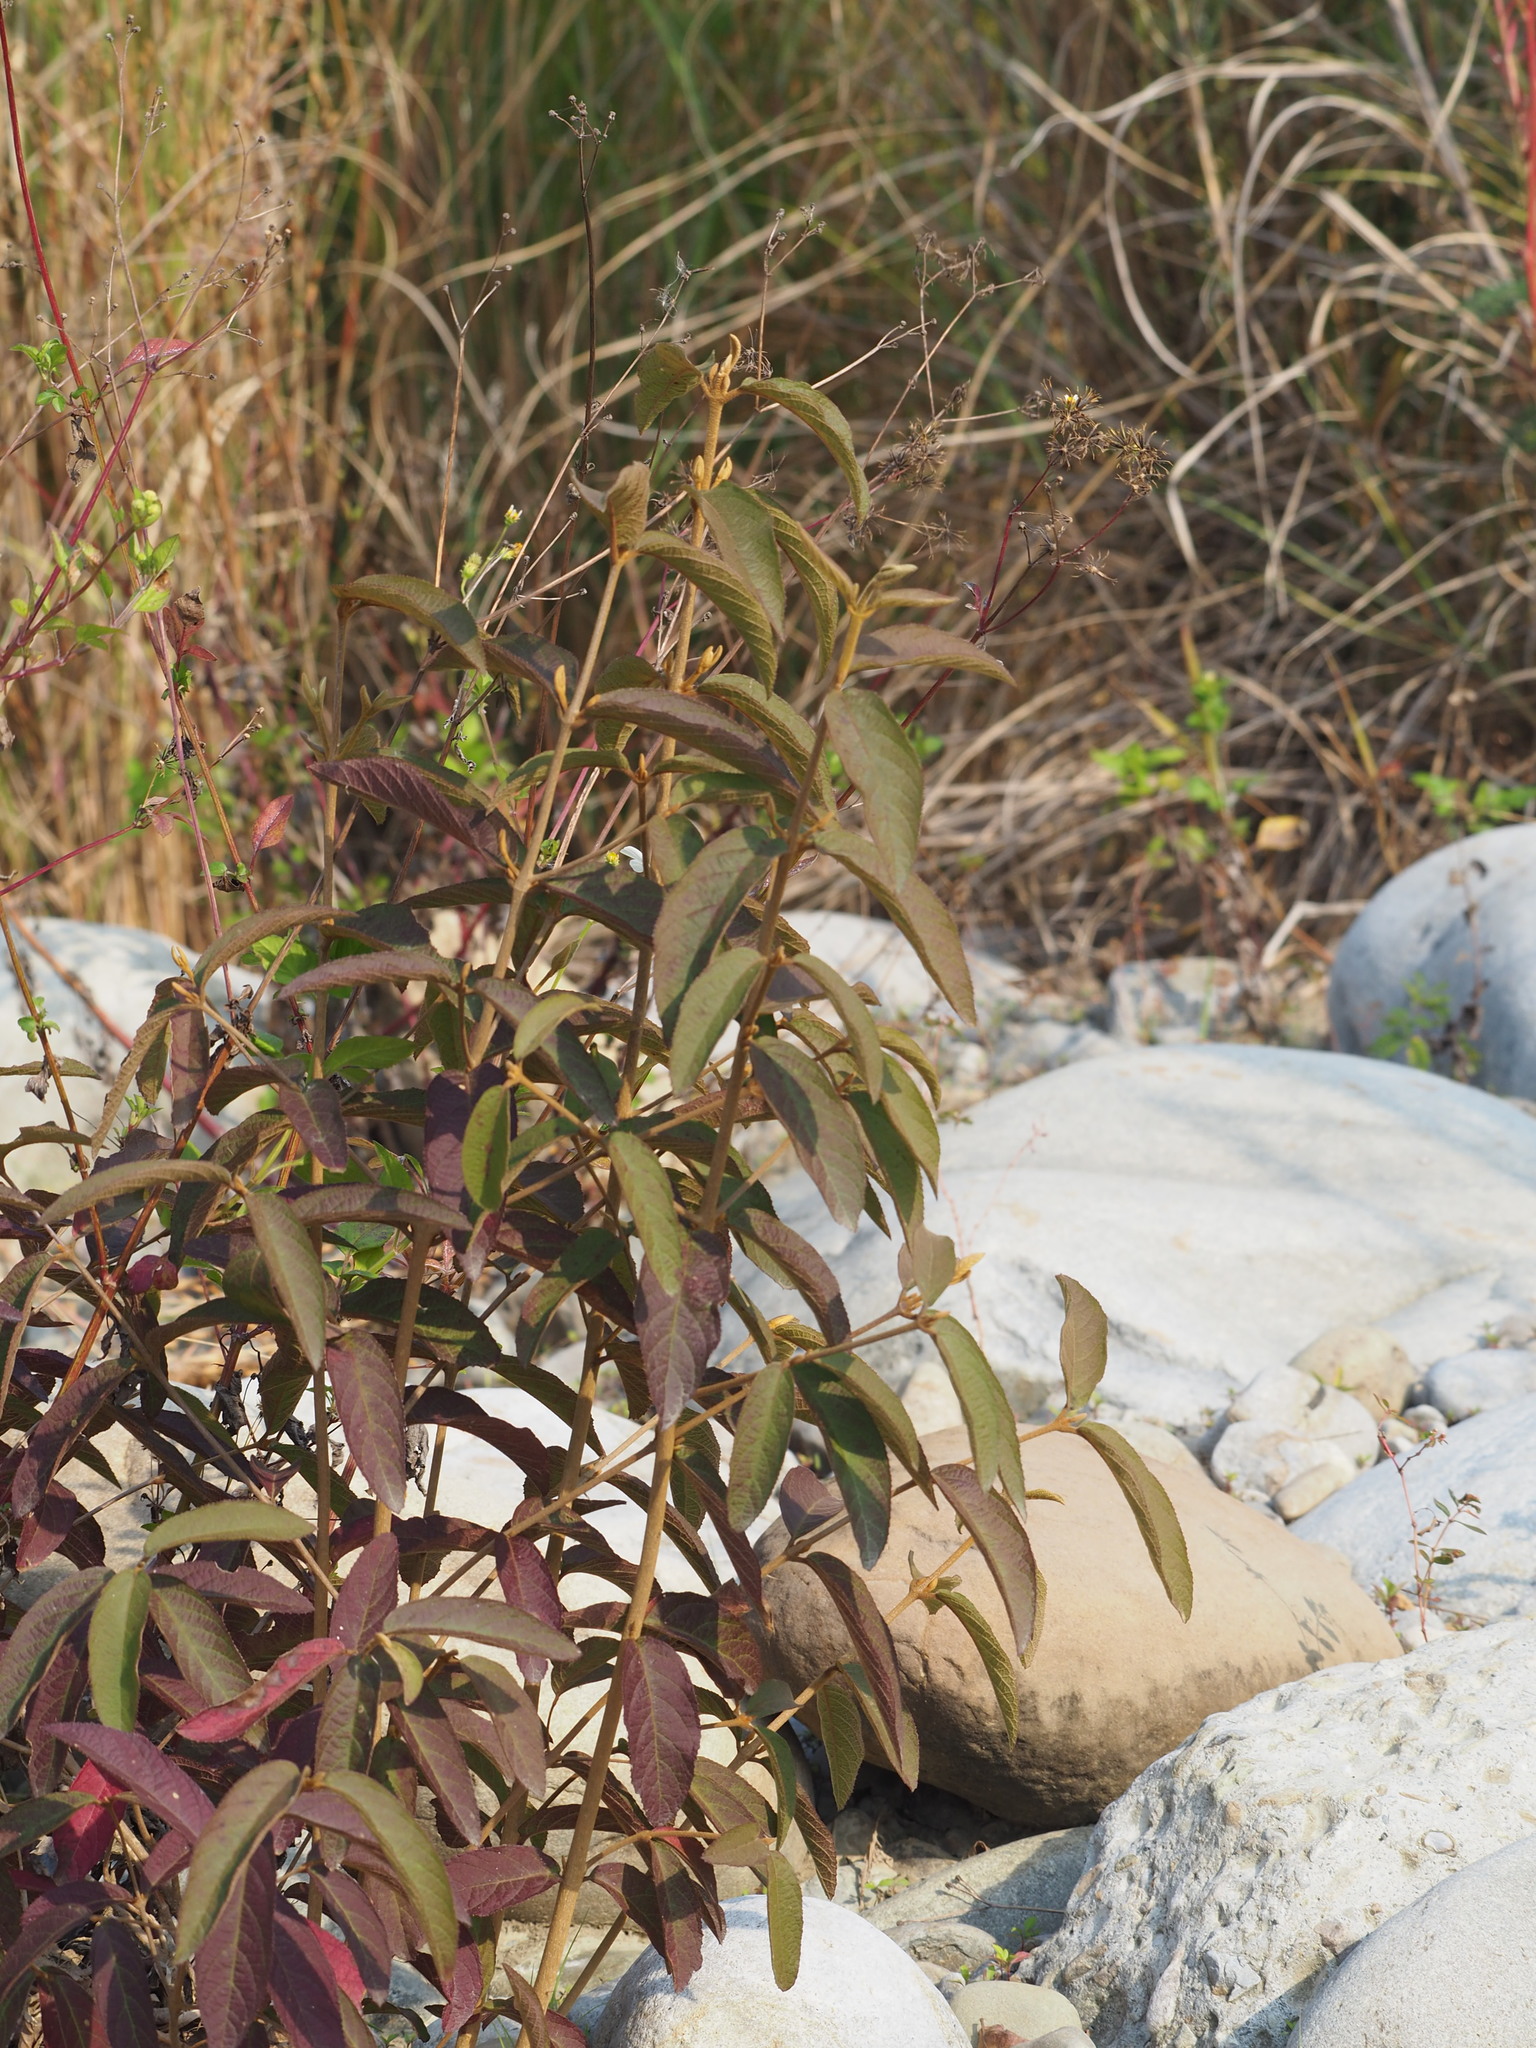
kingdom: Plantae
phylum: Tracheophyta
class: Magnoliopsida
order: Lamiales
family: Lamiaceae
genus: Callicarpa
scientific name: Callicarpa pedunculata
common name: Velvetleaf
